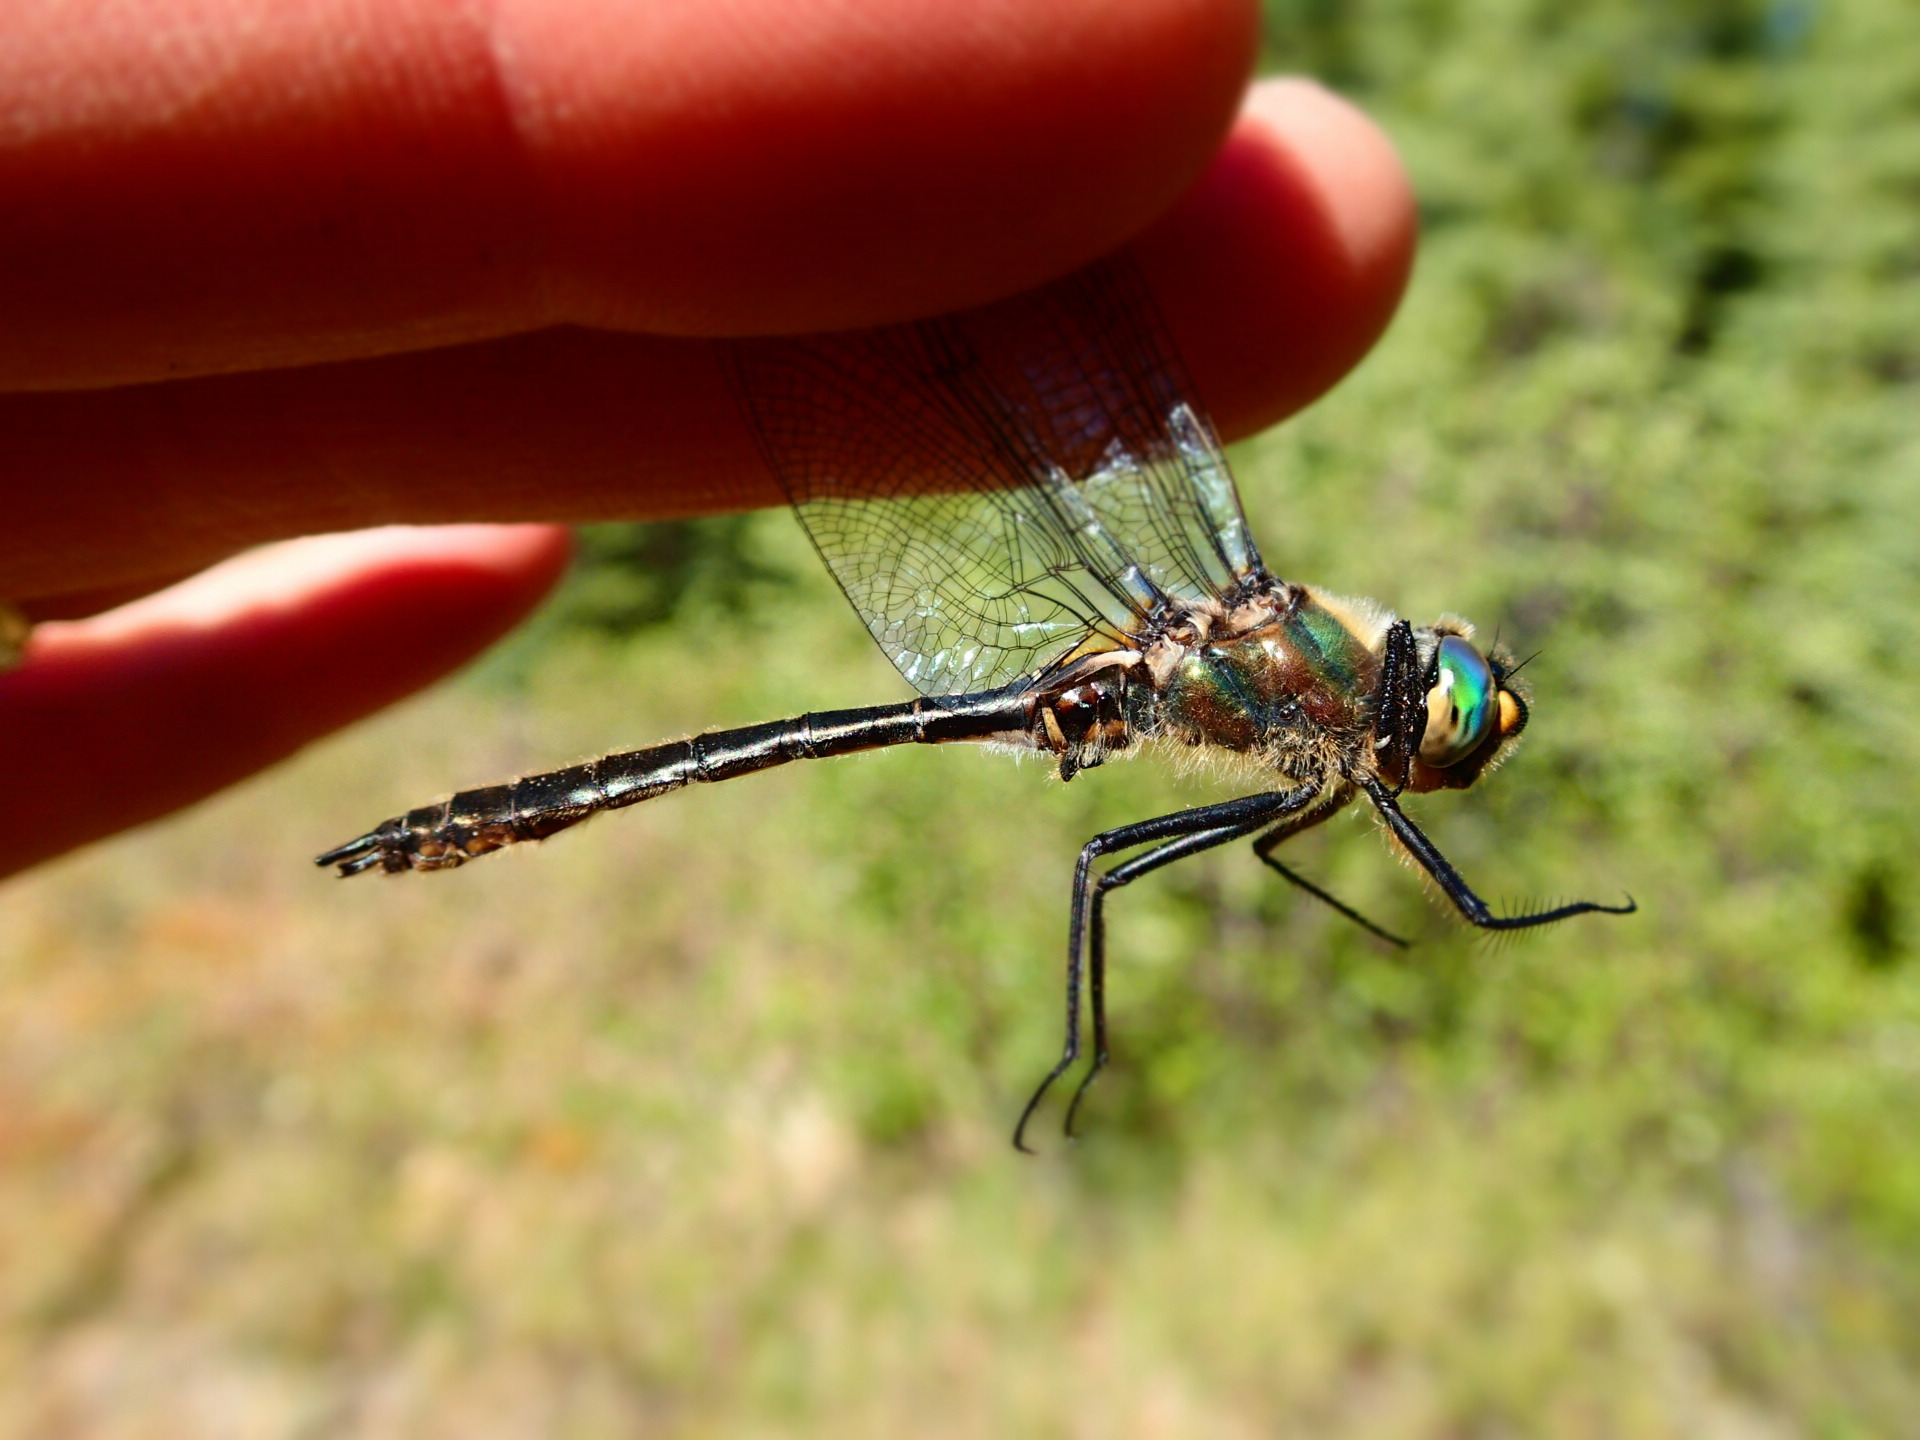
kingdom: Animalia
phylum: Arthropoda
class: Insecta
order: Odonata
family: Corduliidae
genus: Cordulia
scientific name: Cordulia shurtleffii
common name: American emerald
